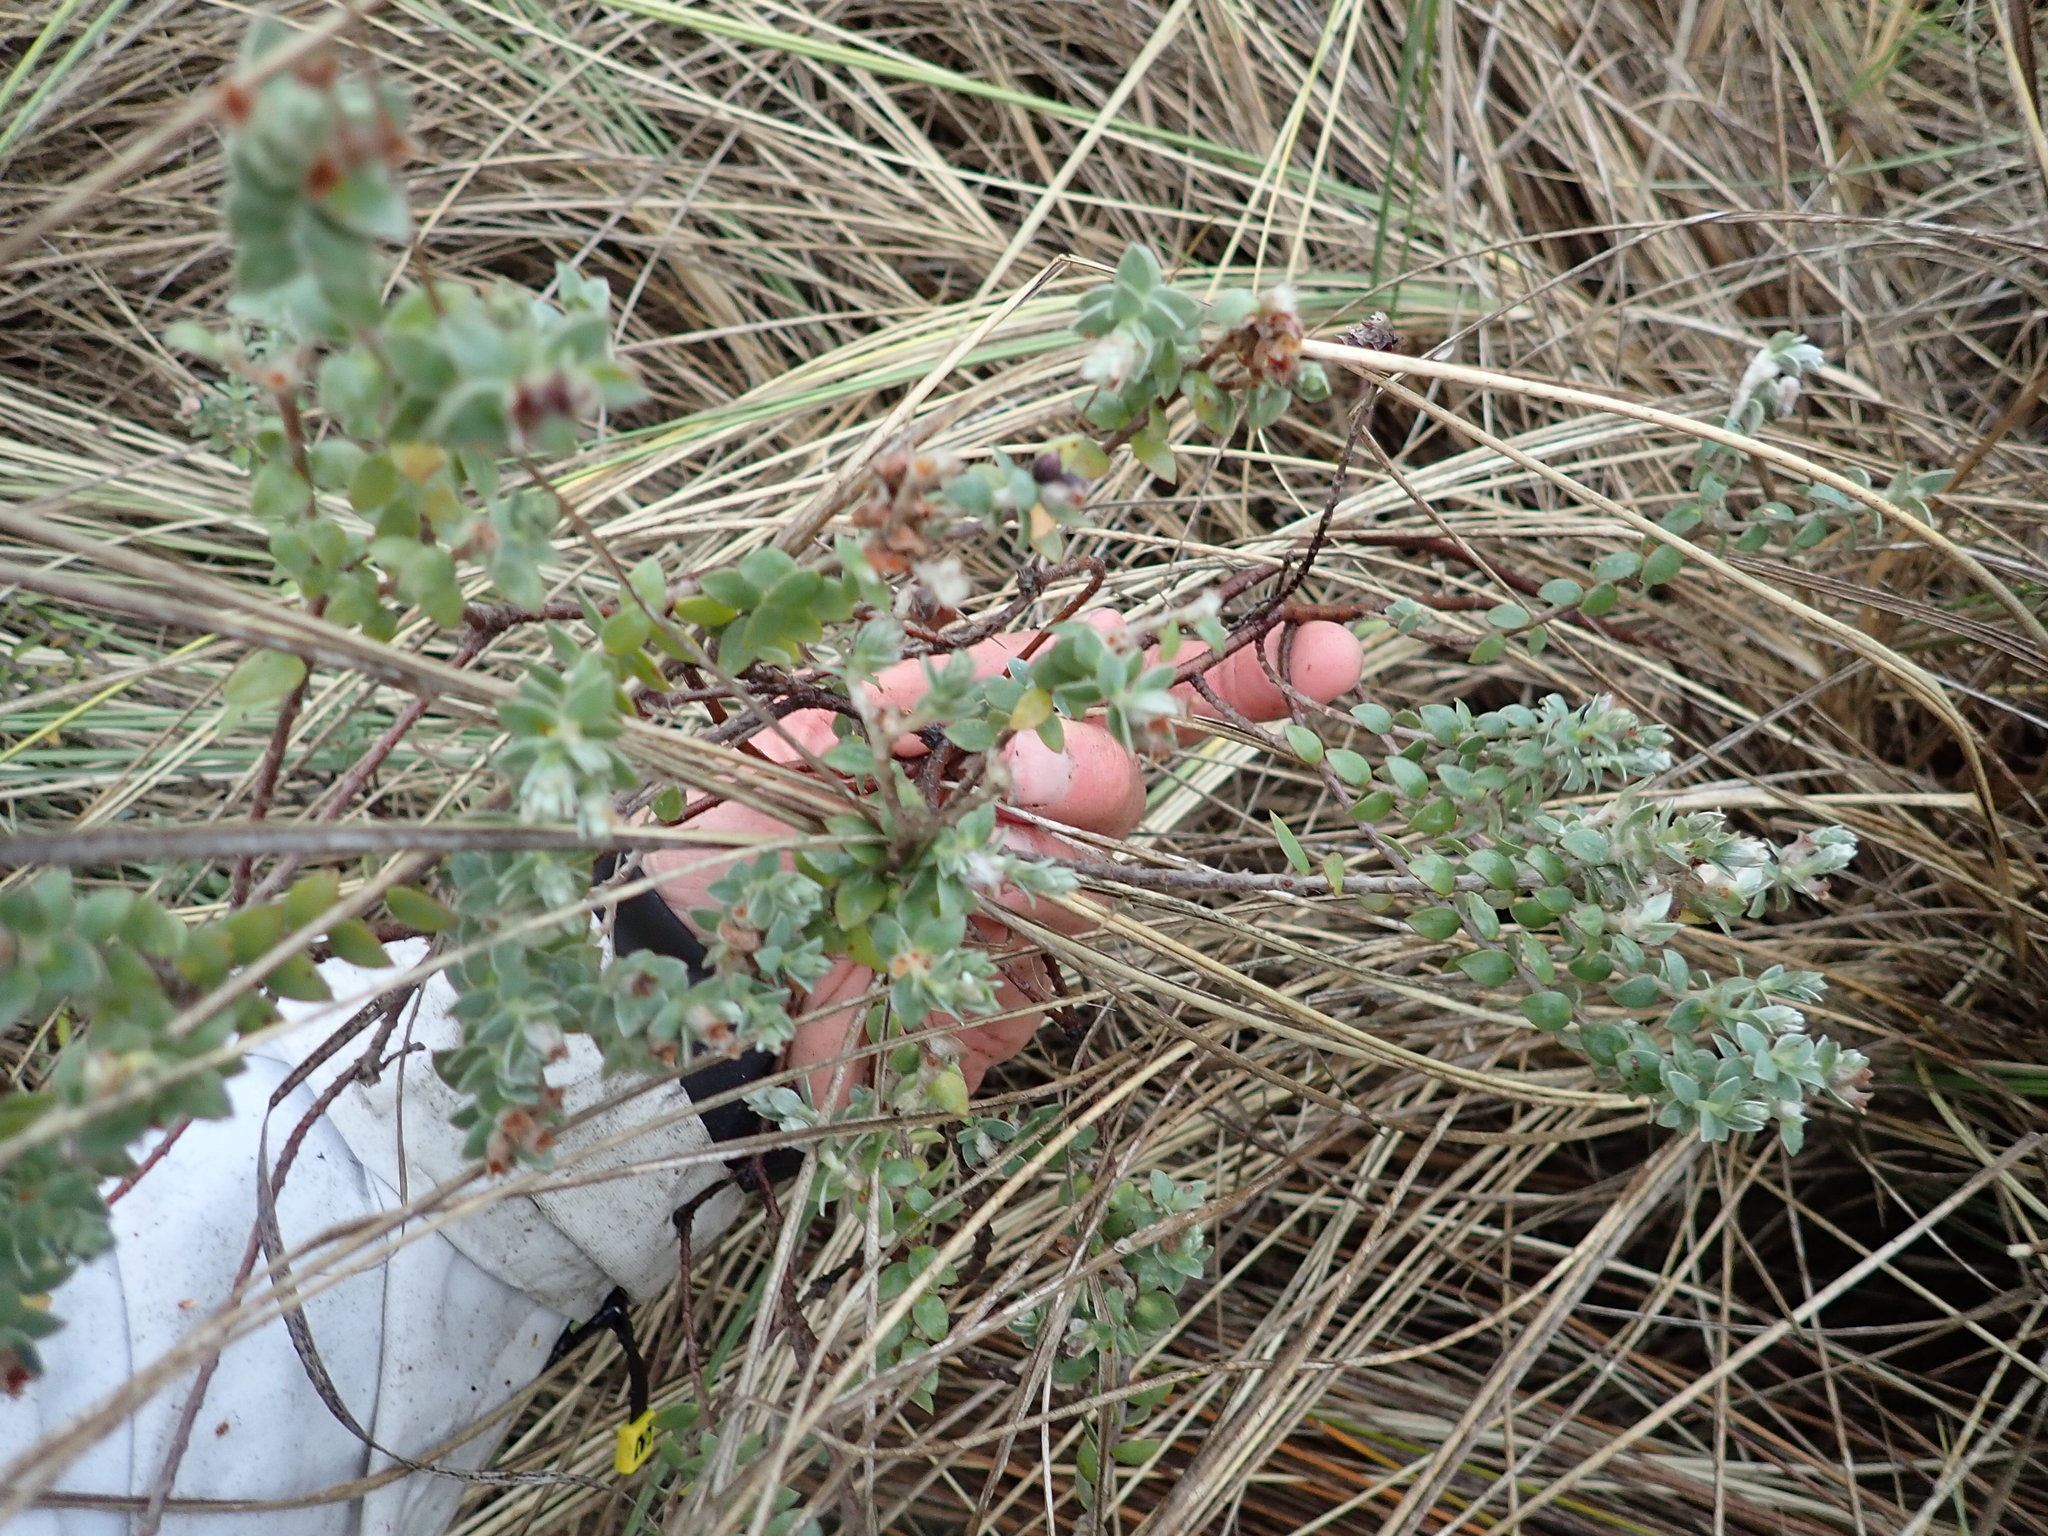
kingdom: Plantae
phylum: Tracheophyta
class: Magnoliopsida
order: Malvales
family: Thymelaeaceae
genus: Pimelea
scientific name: Pimelea villosa
